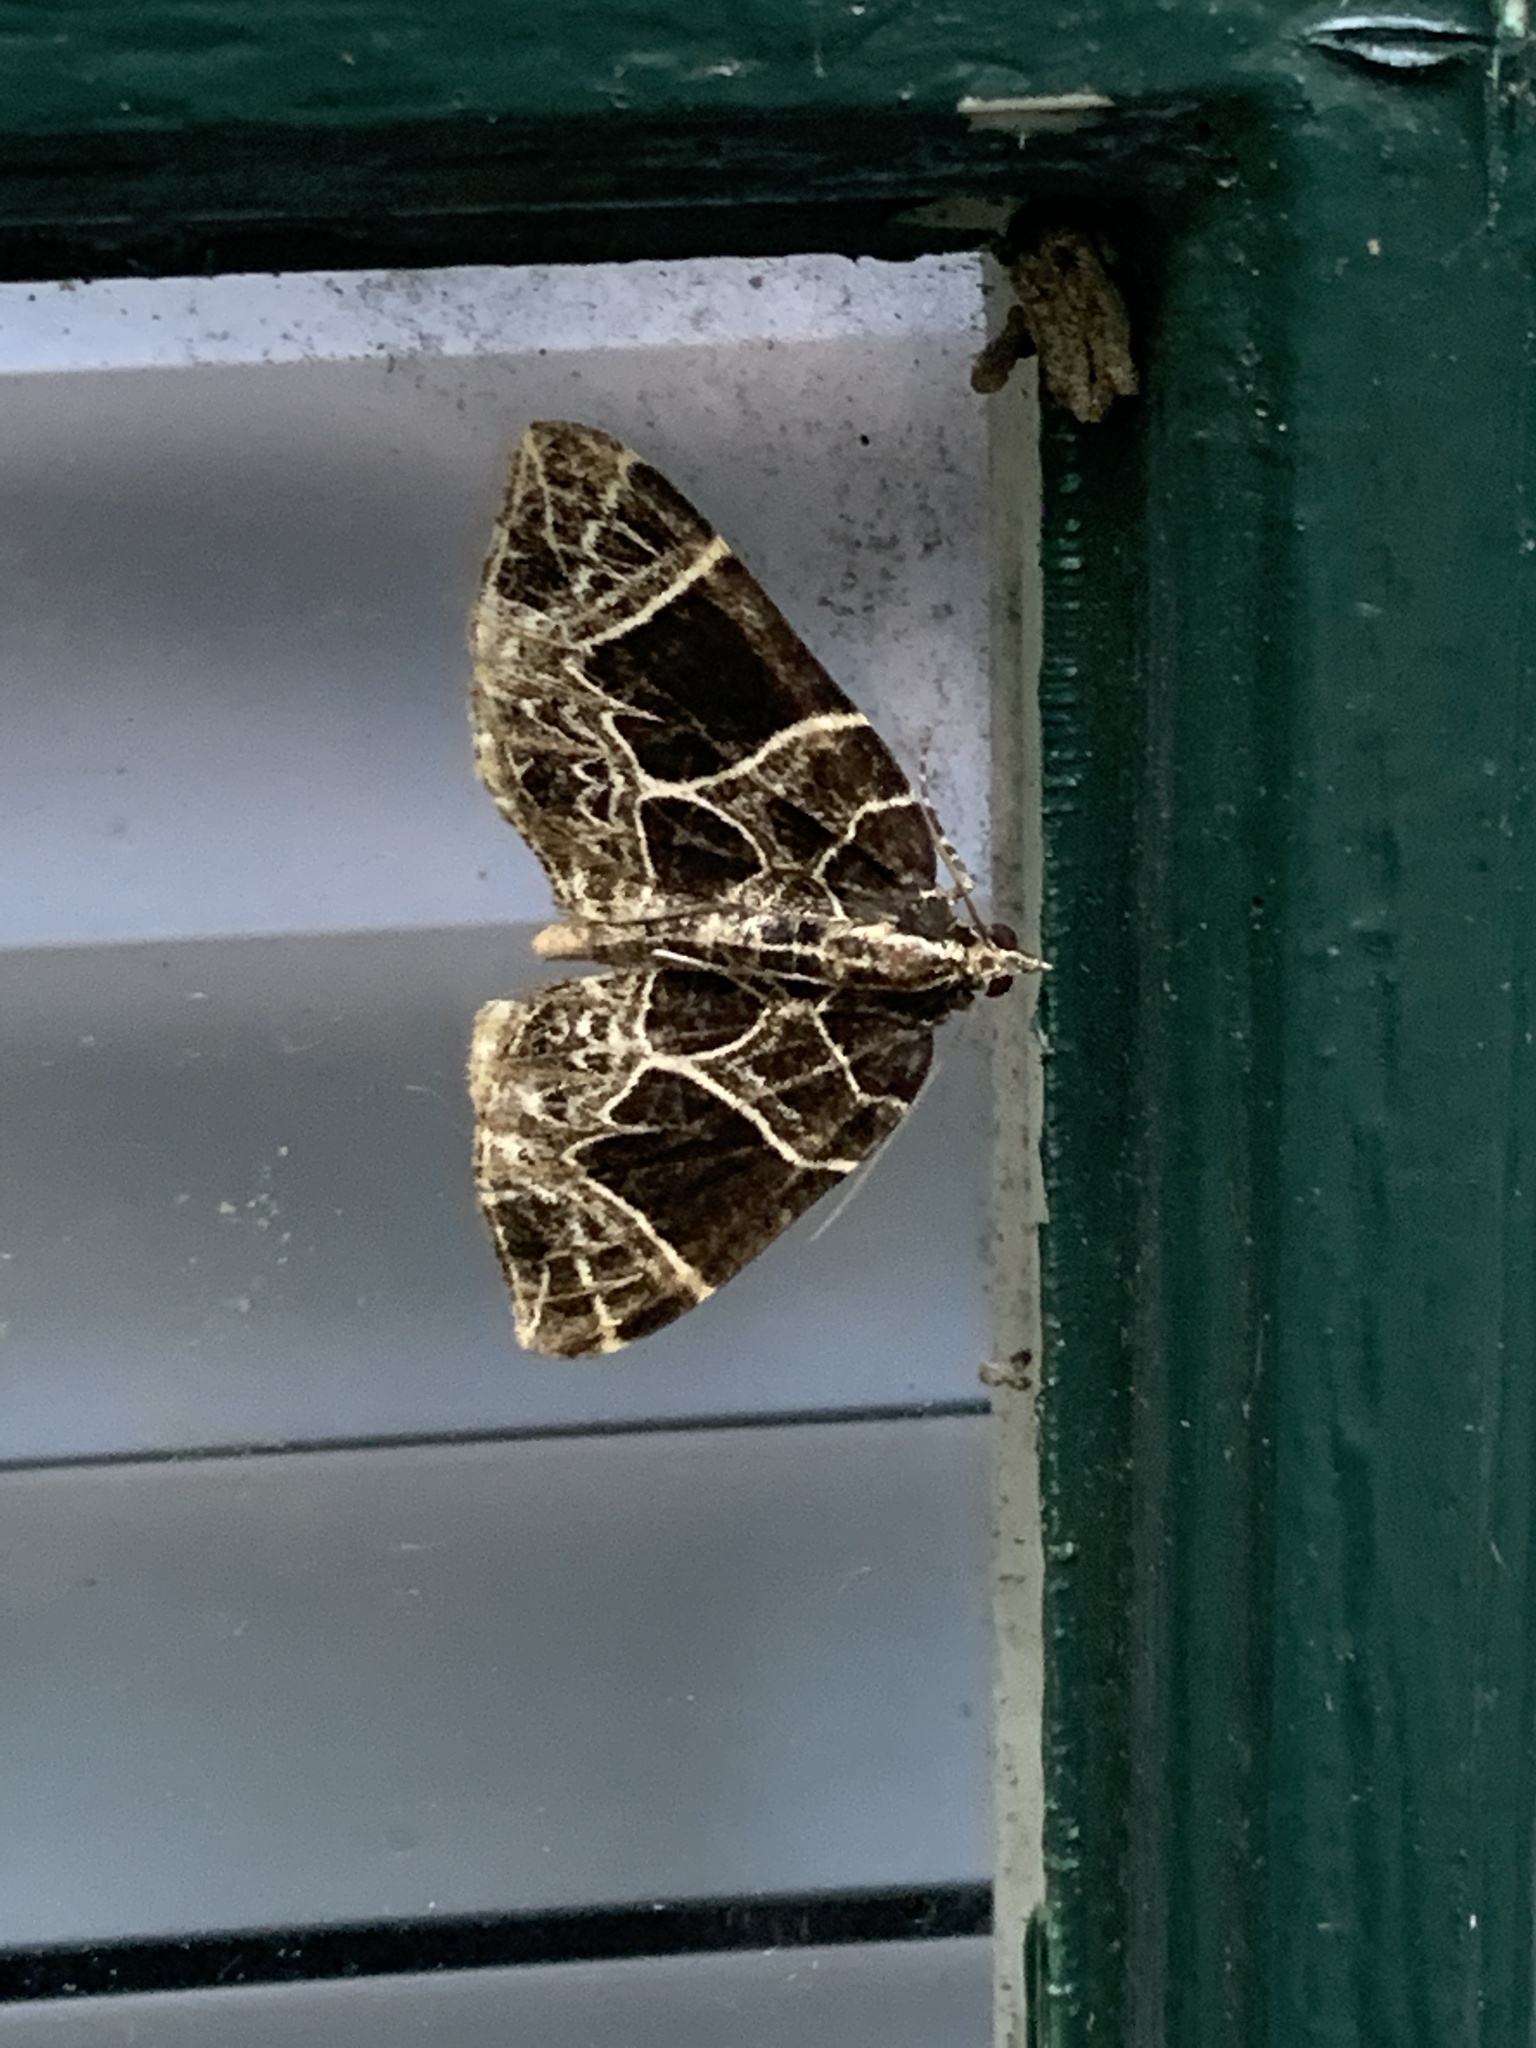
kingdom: Animalia
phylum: Arthropoda
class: Insecta
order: Lepidoptera
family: Geometridae
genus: Ecliptopera
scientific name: Ecliptopera atricolorata
